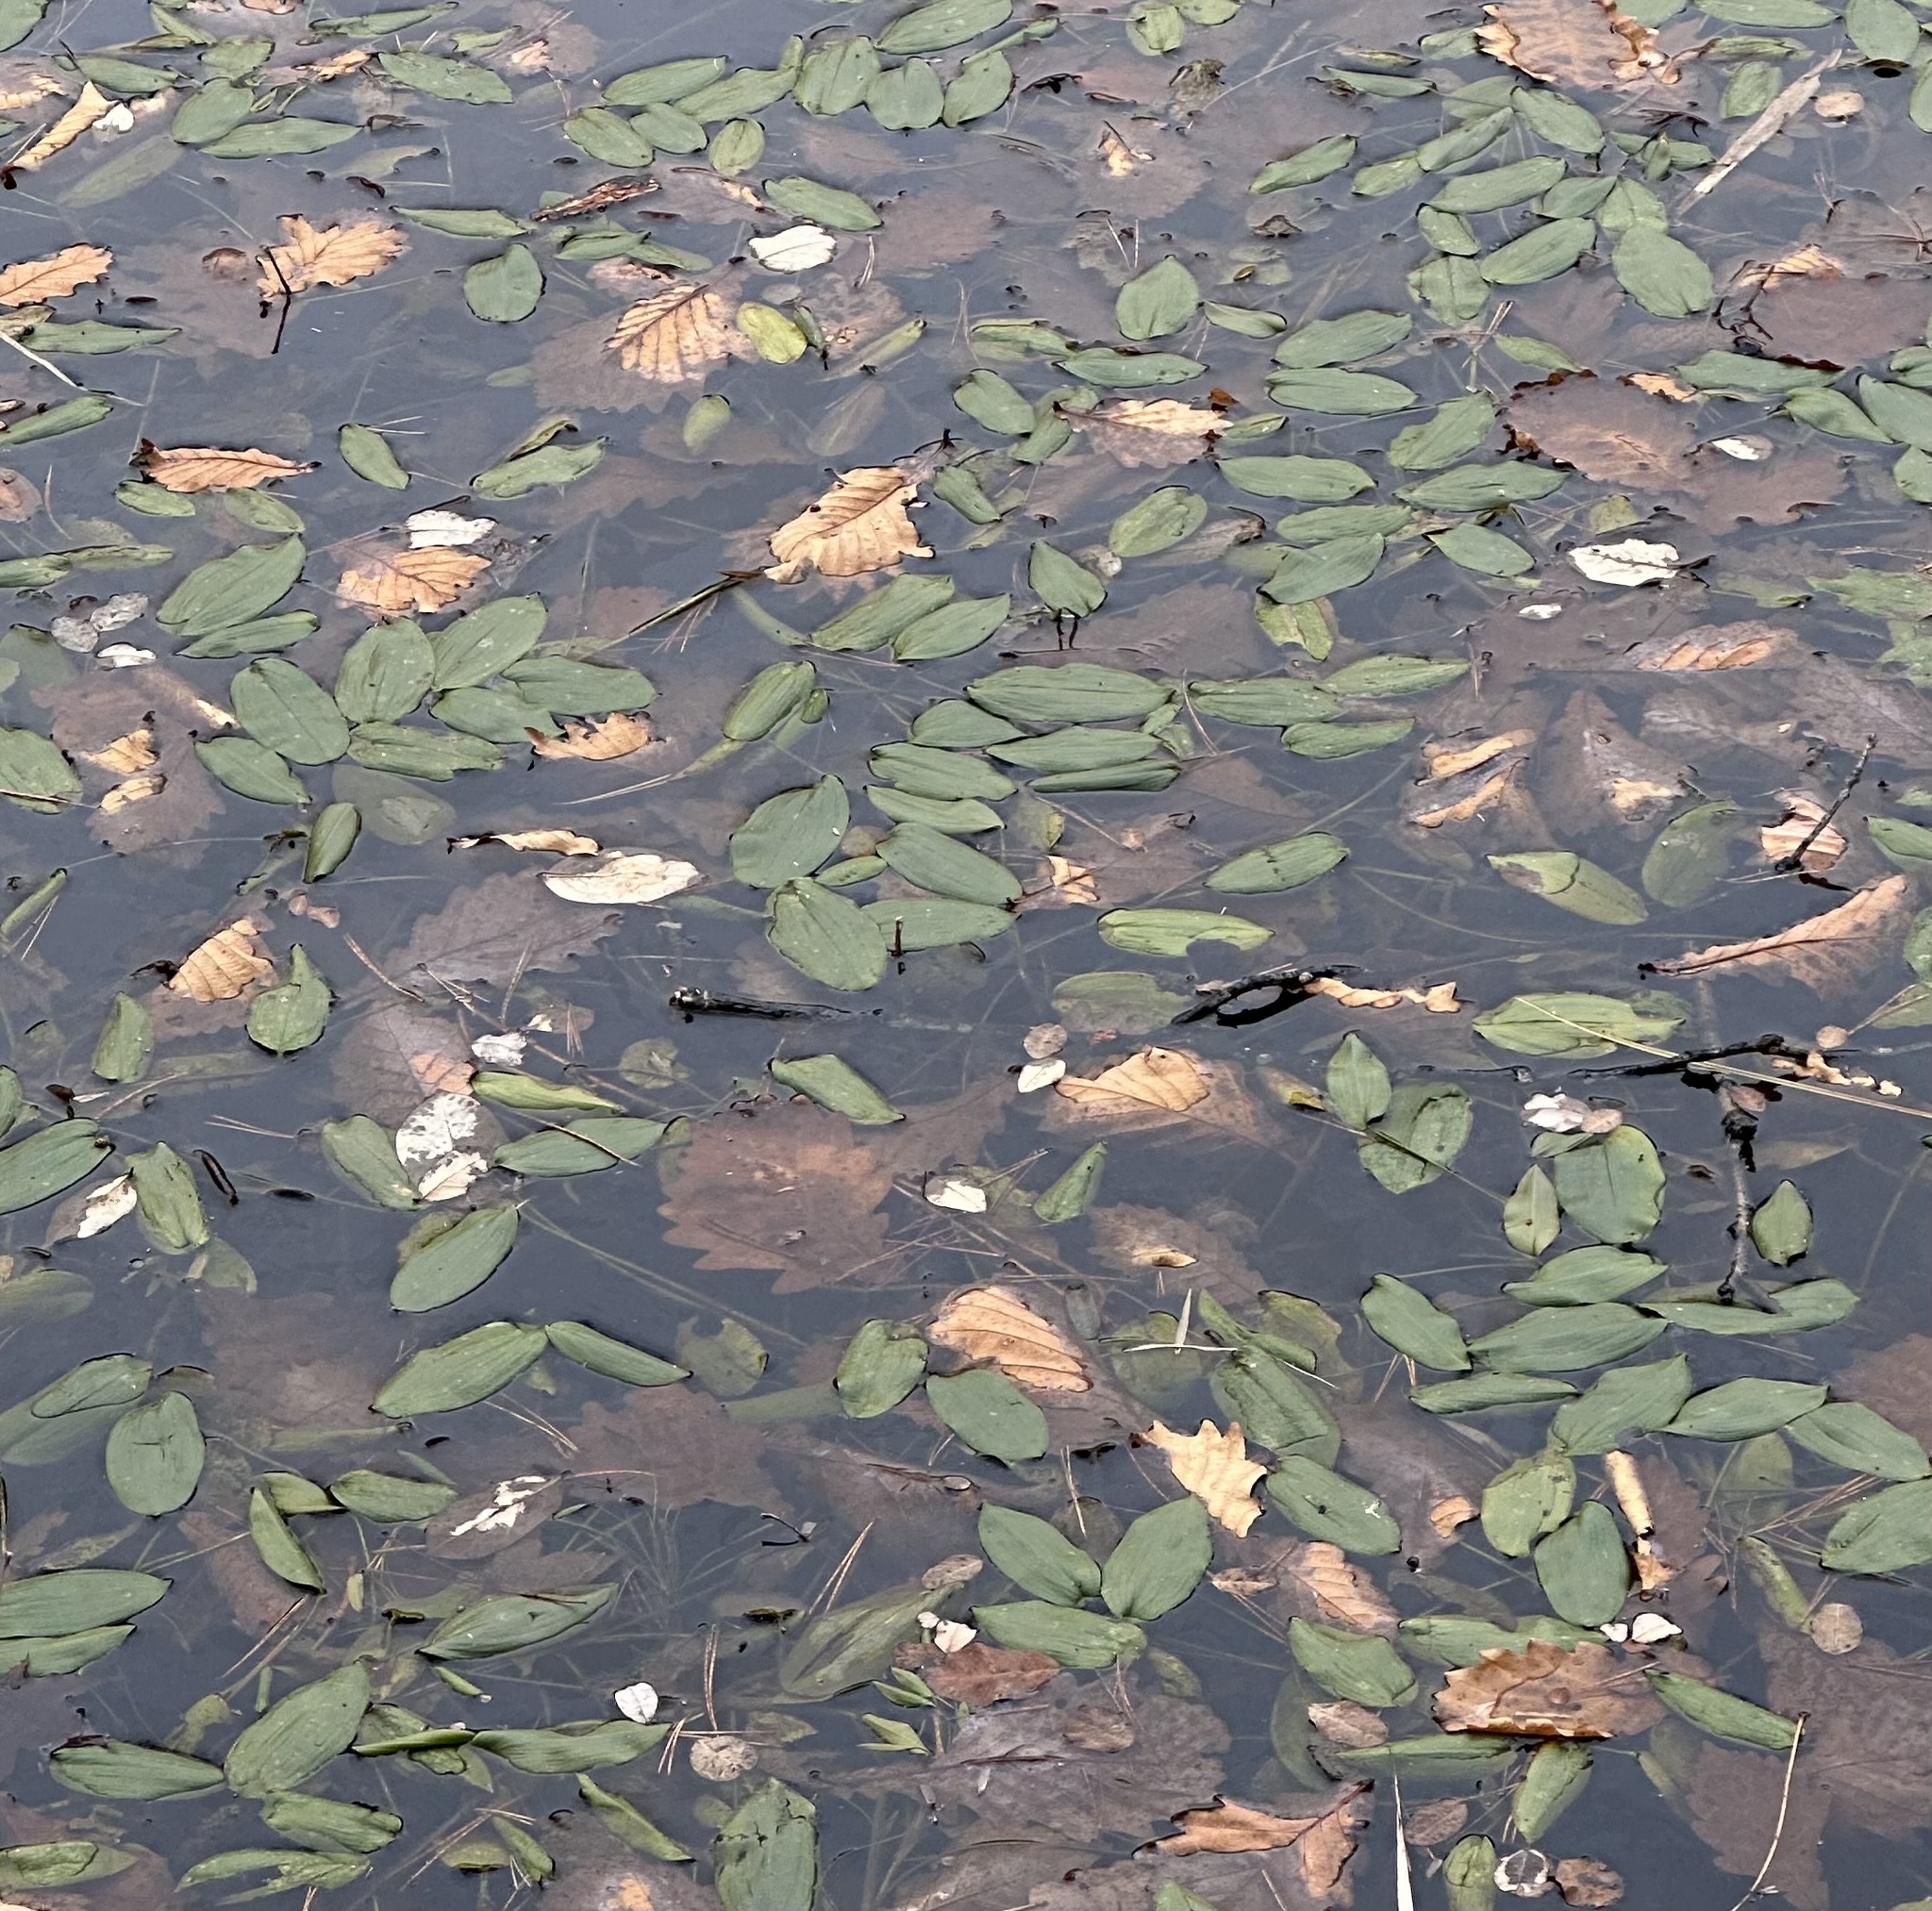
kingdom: Plantae
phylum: Tracheophyta
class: Liliopsida
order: Alismatales
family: Potamogetonaceae
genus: Potamogeton
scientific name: Potamogeton natans
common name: Broad-leaved pondweed
